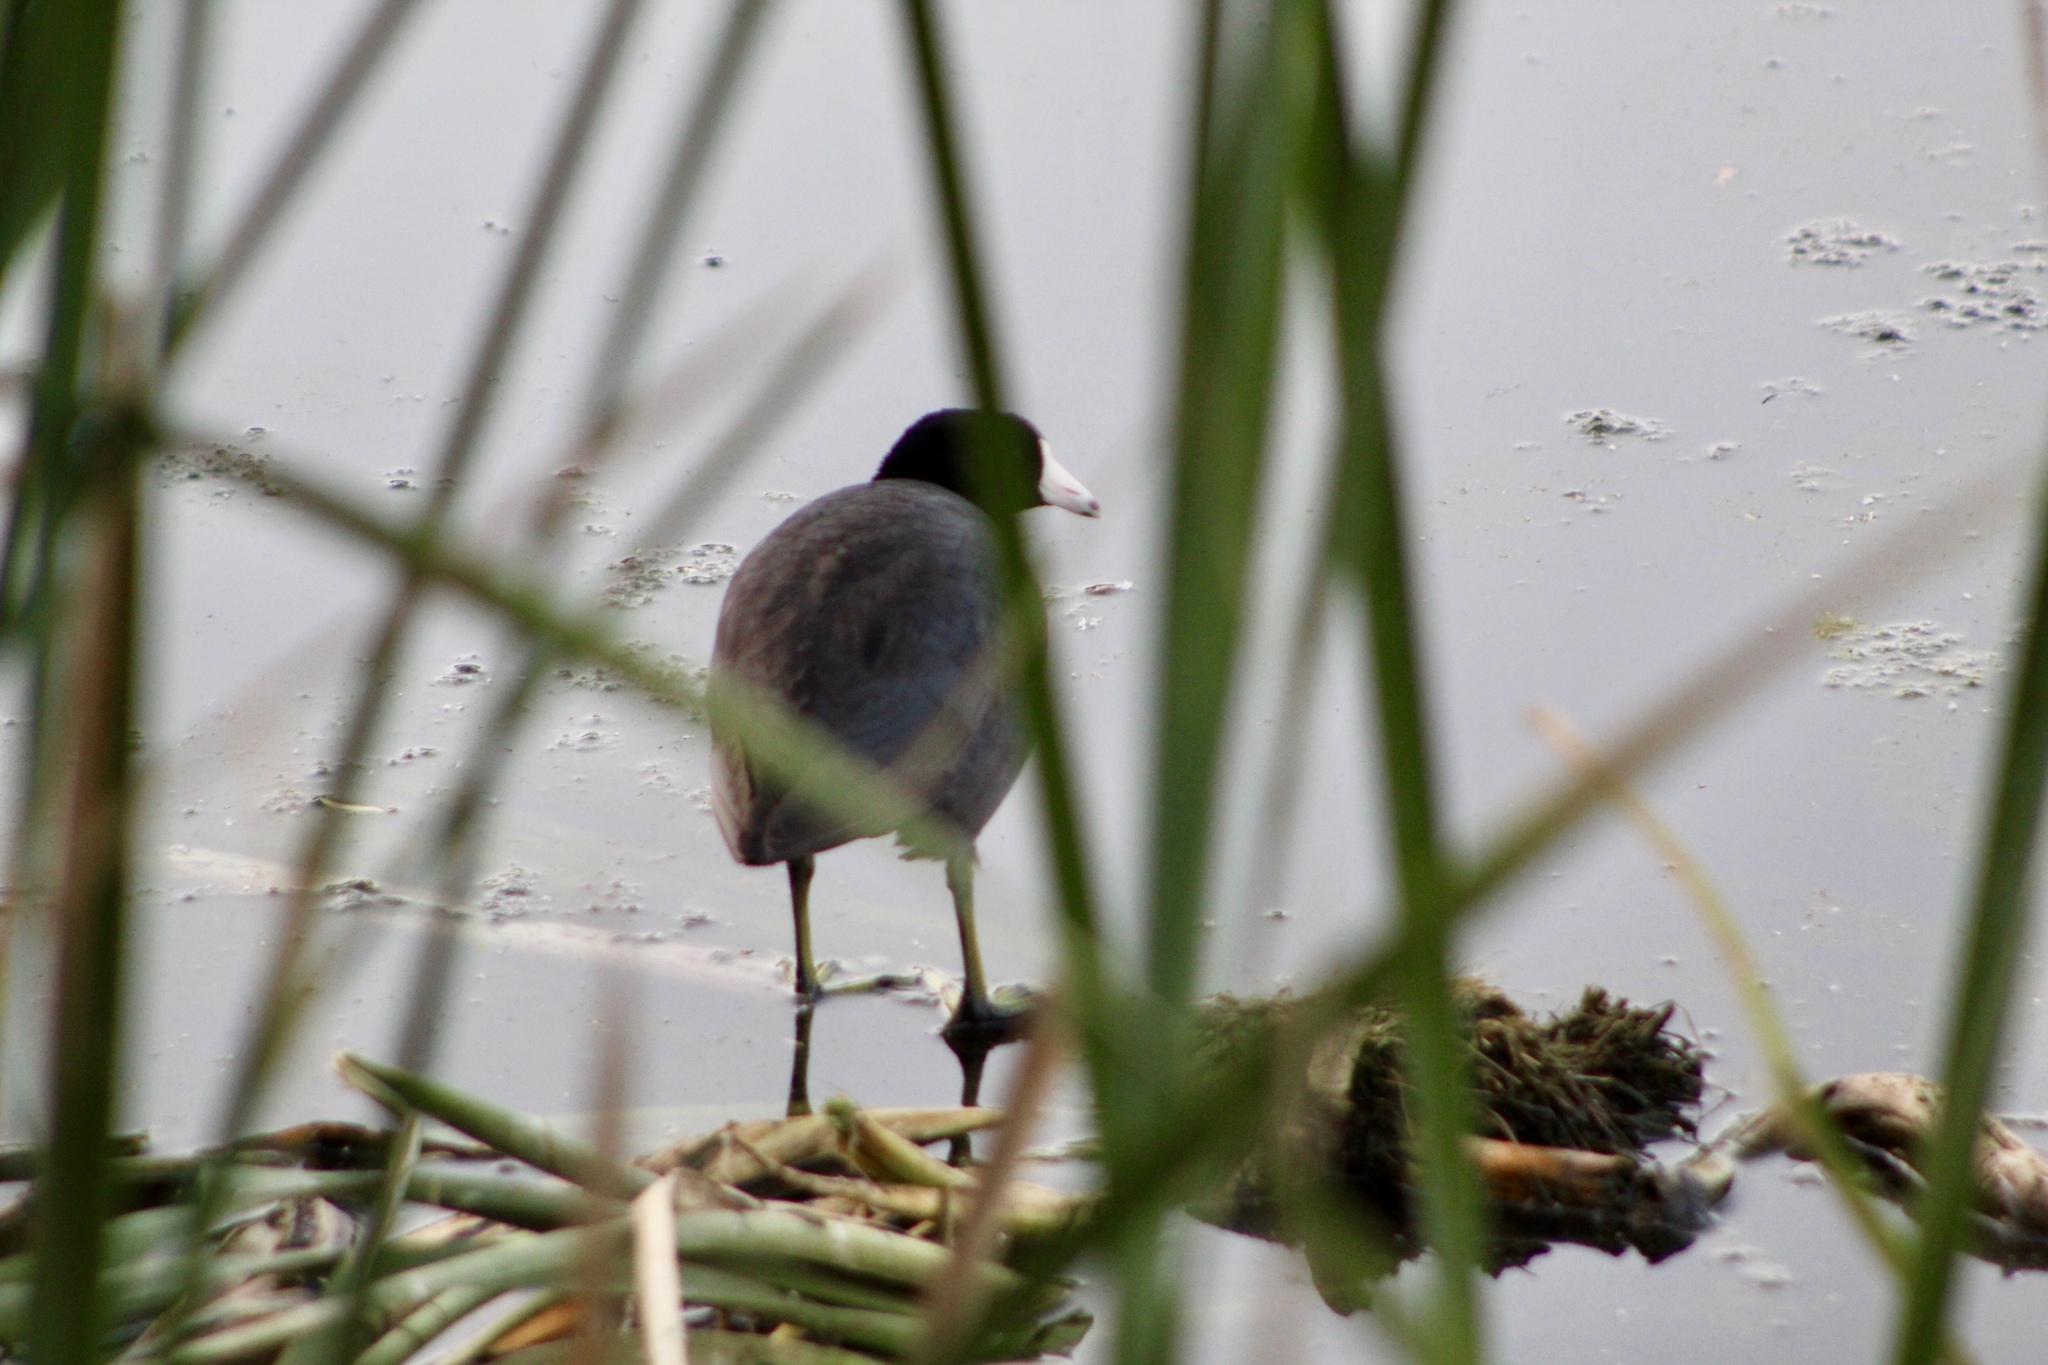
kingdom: Animalia
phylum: Chordata
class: Aves
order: Gruiformes
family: Rallidae
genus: Fulica
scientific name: Fulica americana
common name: American coot
